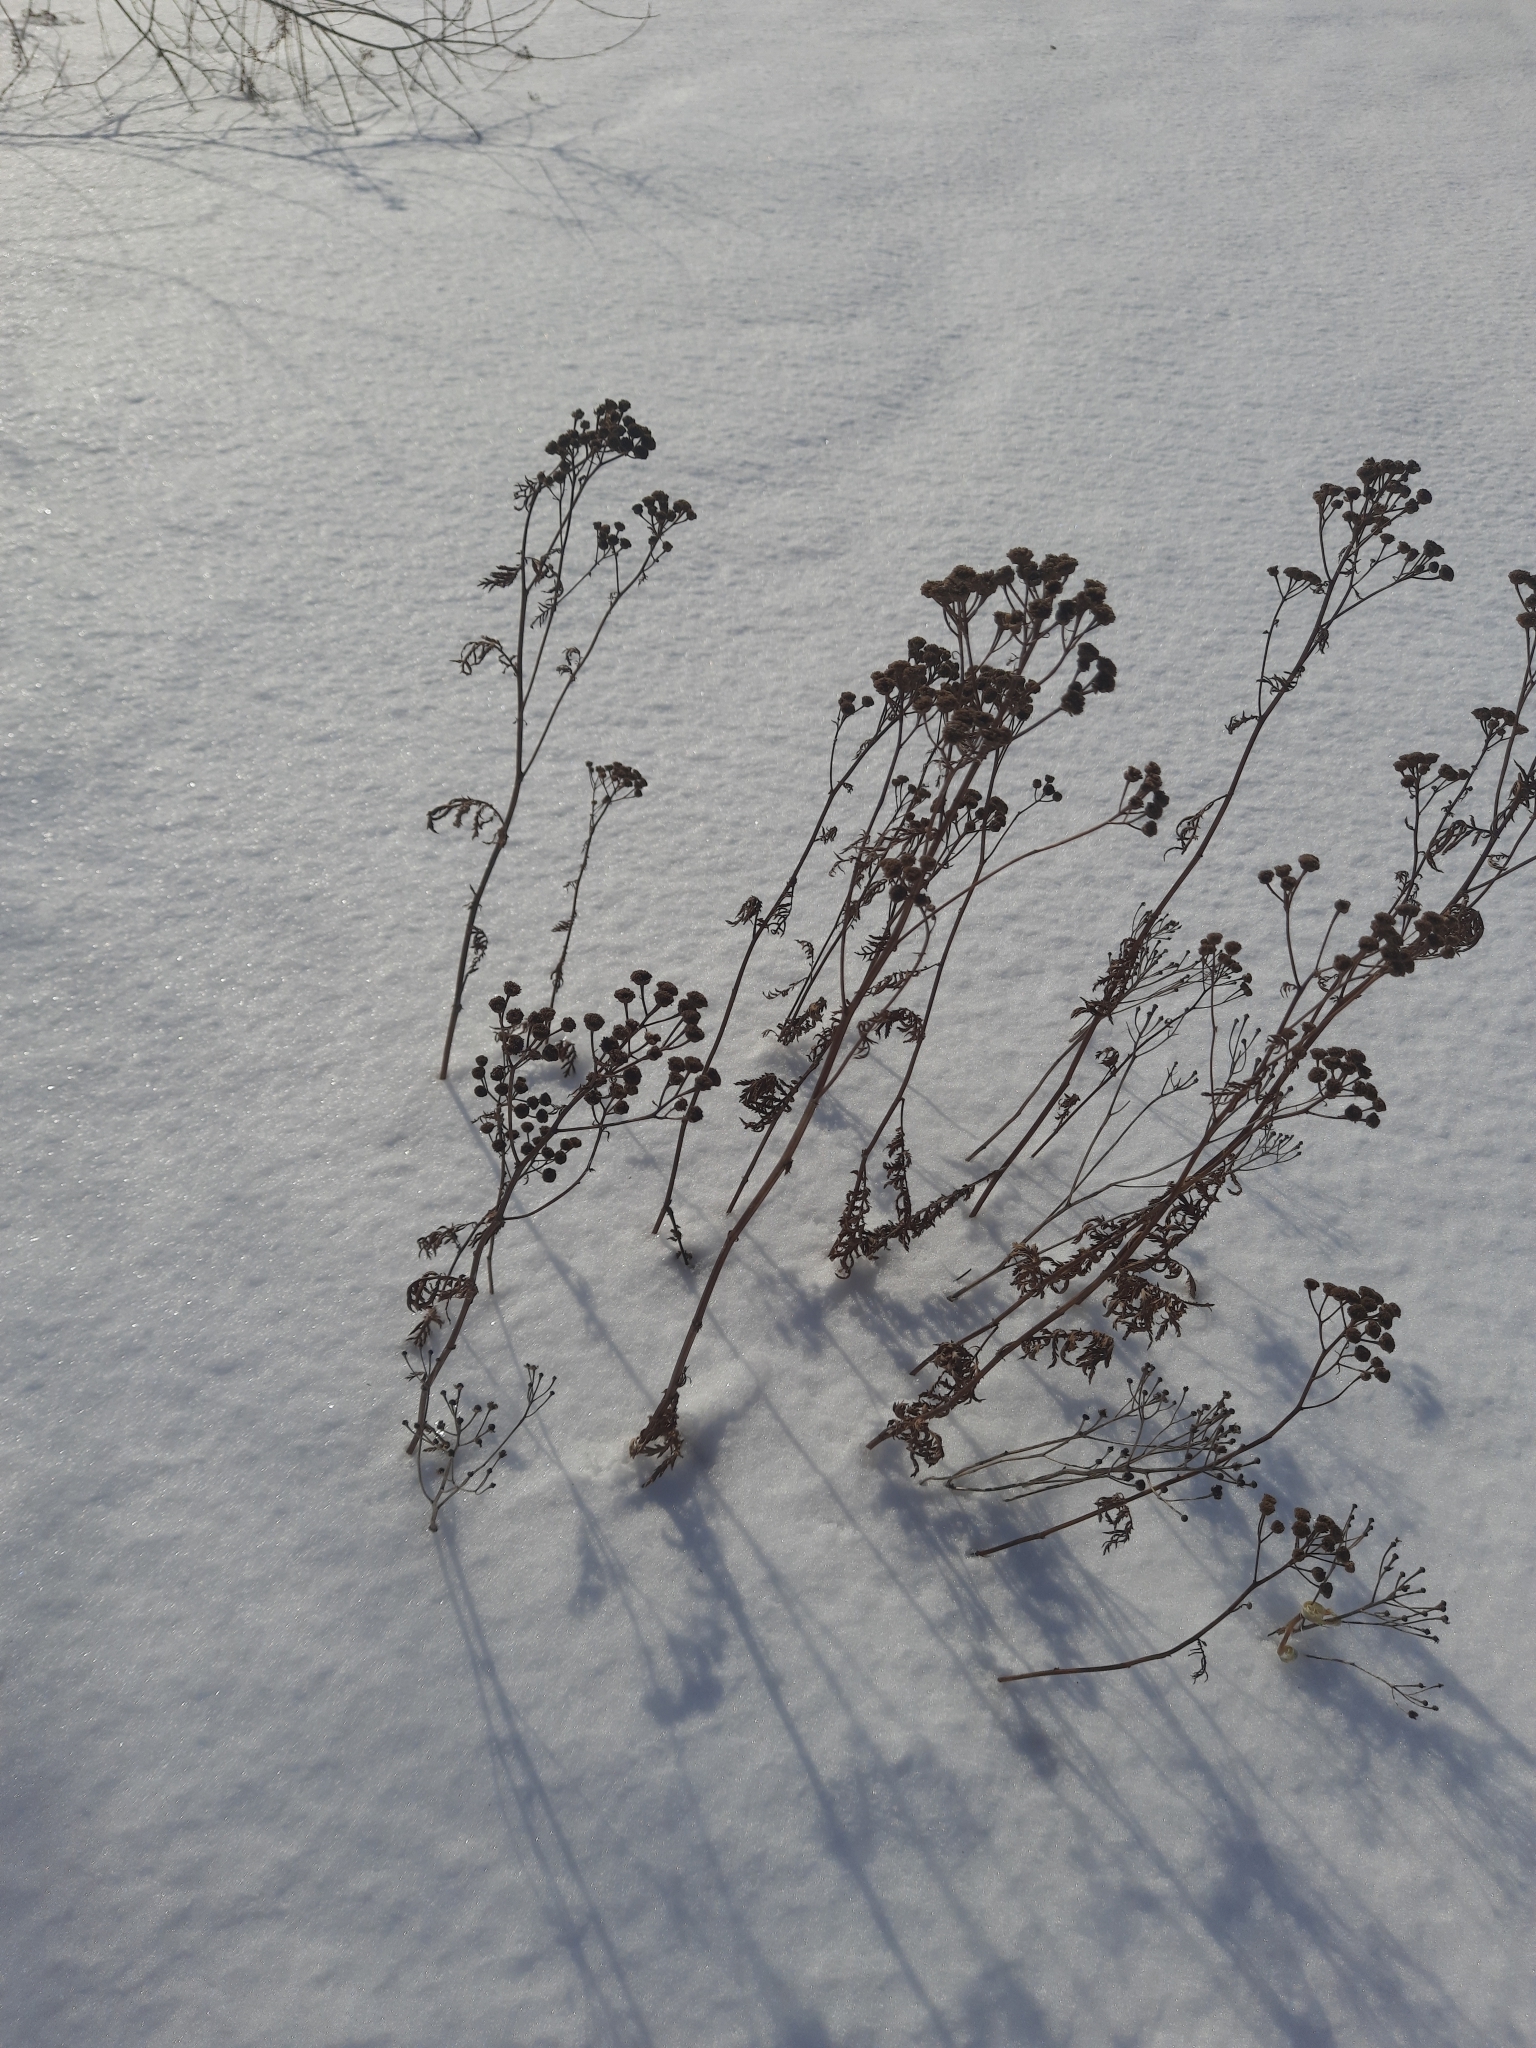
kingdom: Plantae
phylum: Tracheophyta
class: Magnoliopsida
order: Asterales
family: Asteraceae
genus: Tanacetum
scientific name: Tanacetum vulgare
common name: Common tansy
